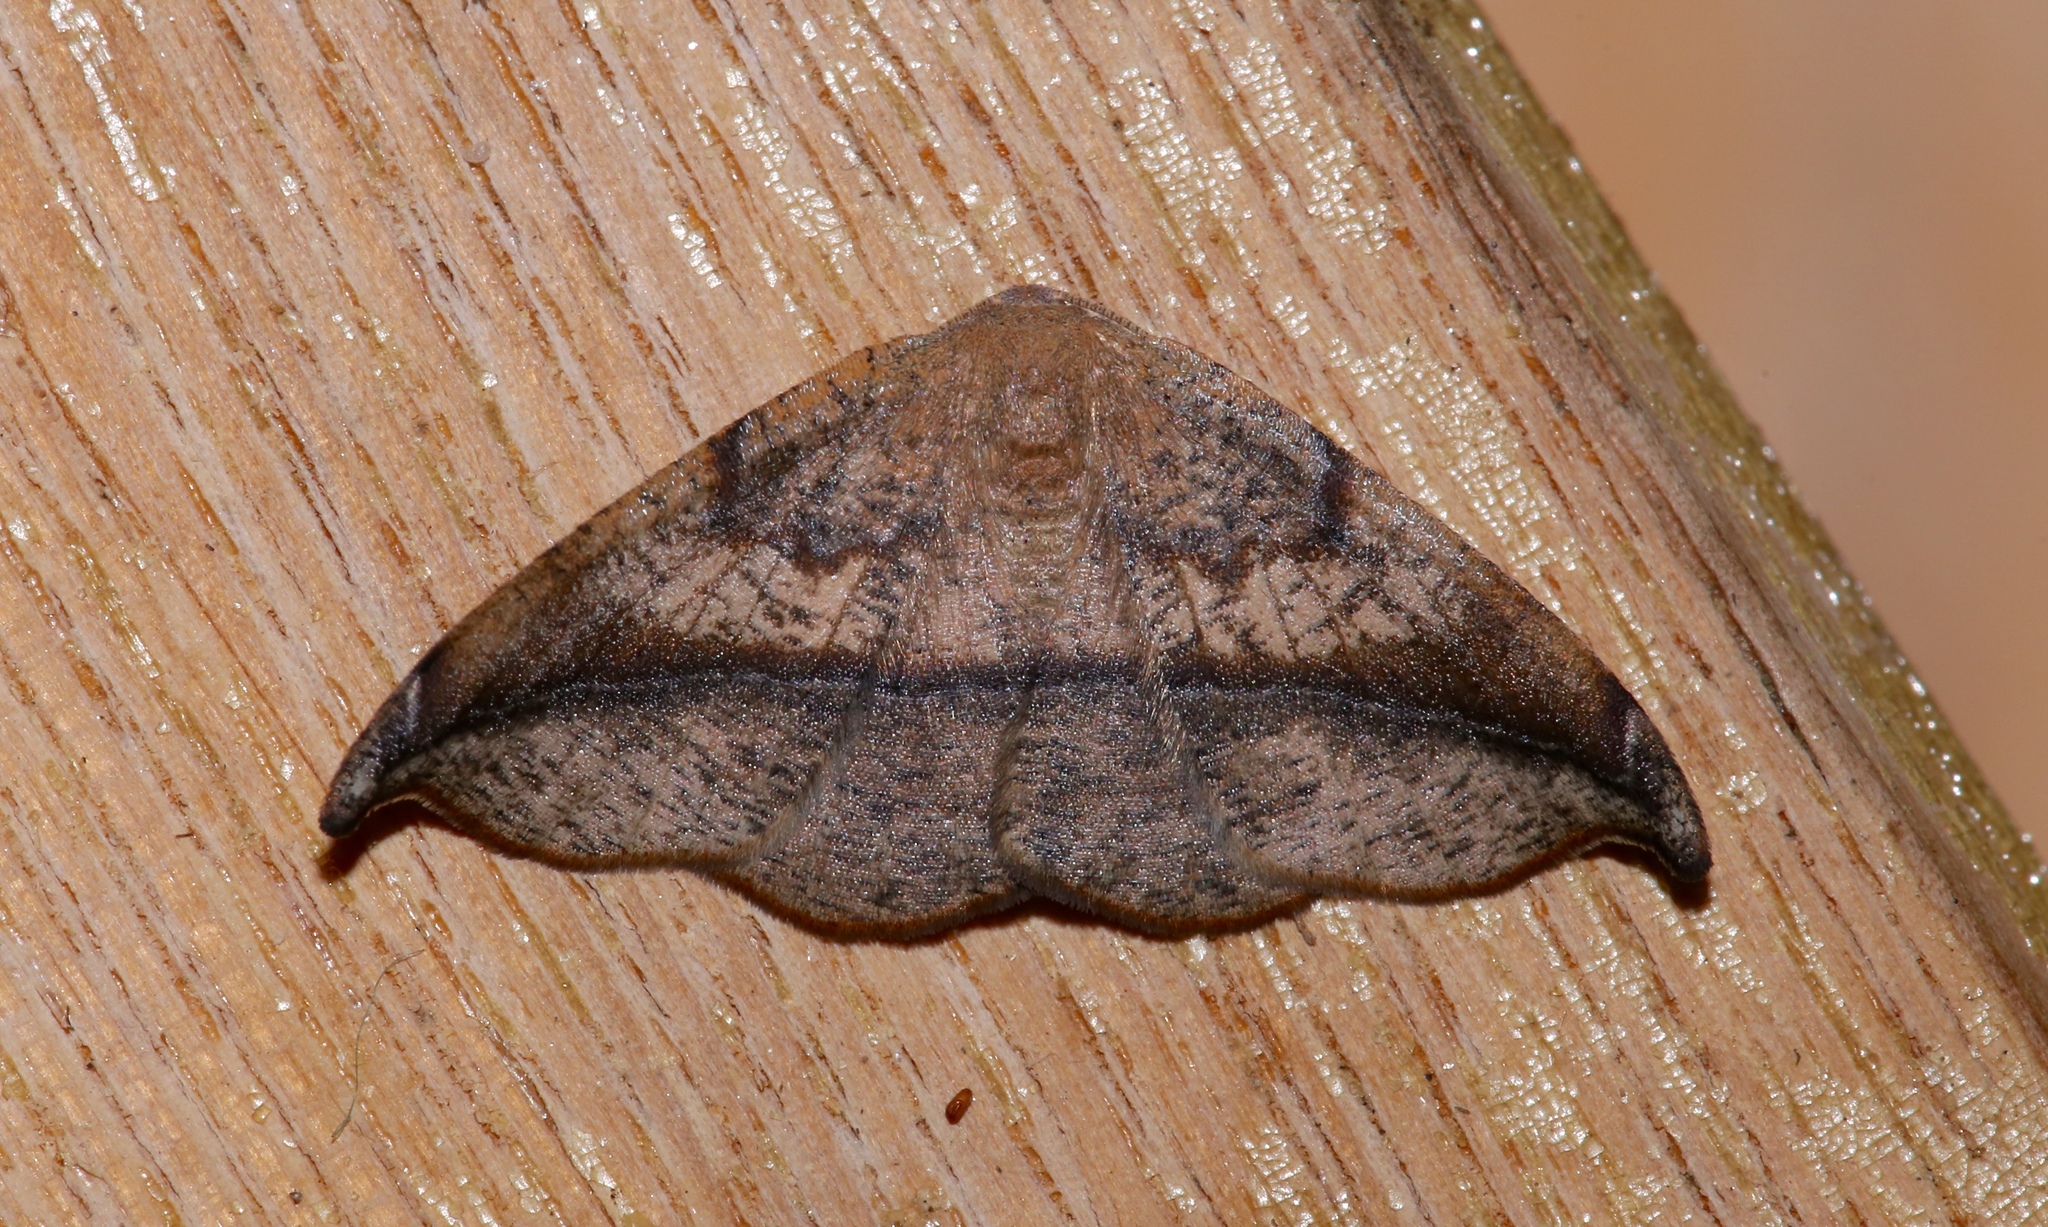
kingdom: Animalia
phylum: Arthropoda
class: Insecta
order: Lepidoptera
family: Geometridae
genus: Patalene
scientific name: Patalene olyzonaria
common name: Juniper geometer moth
